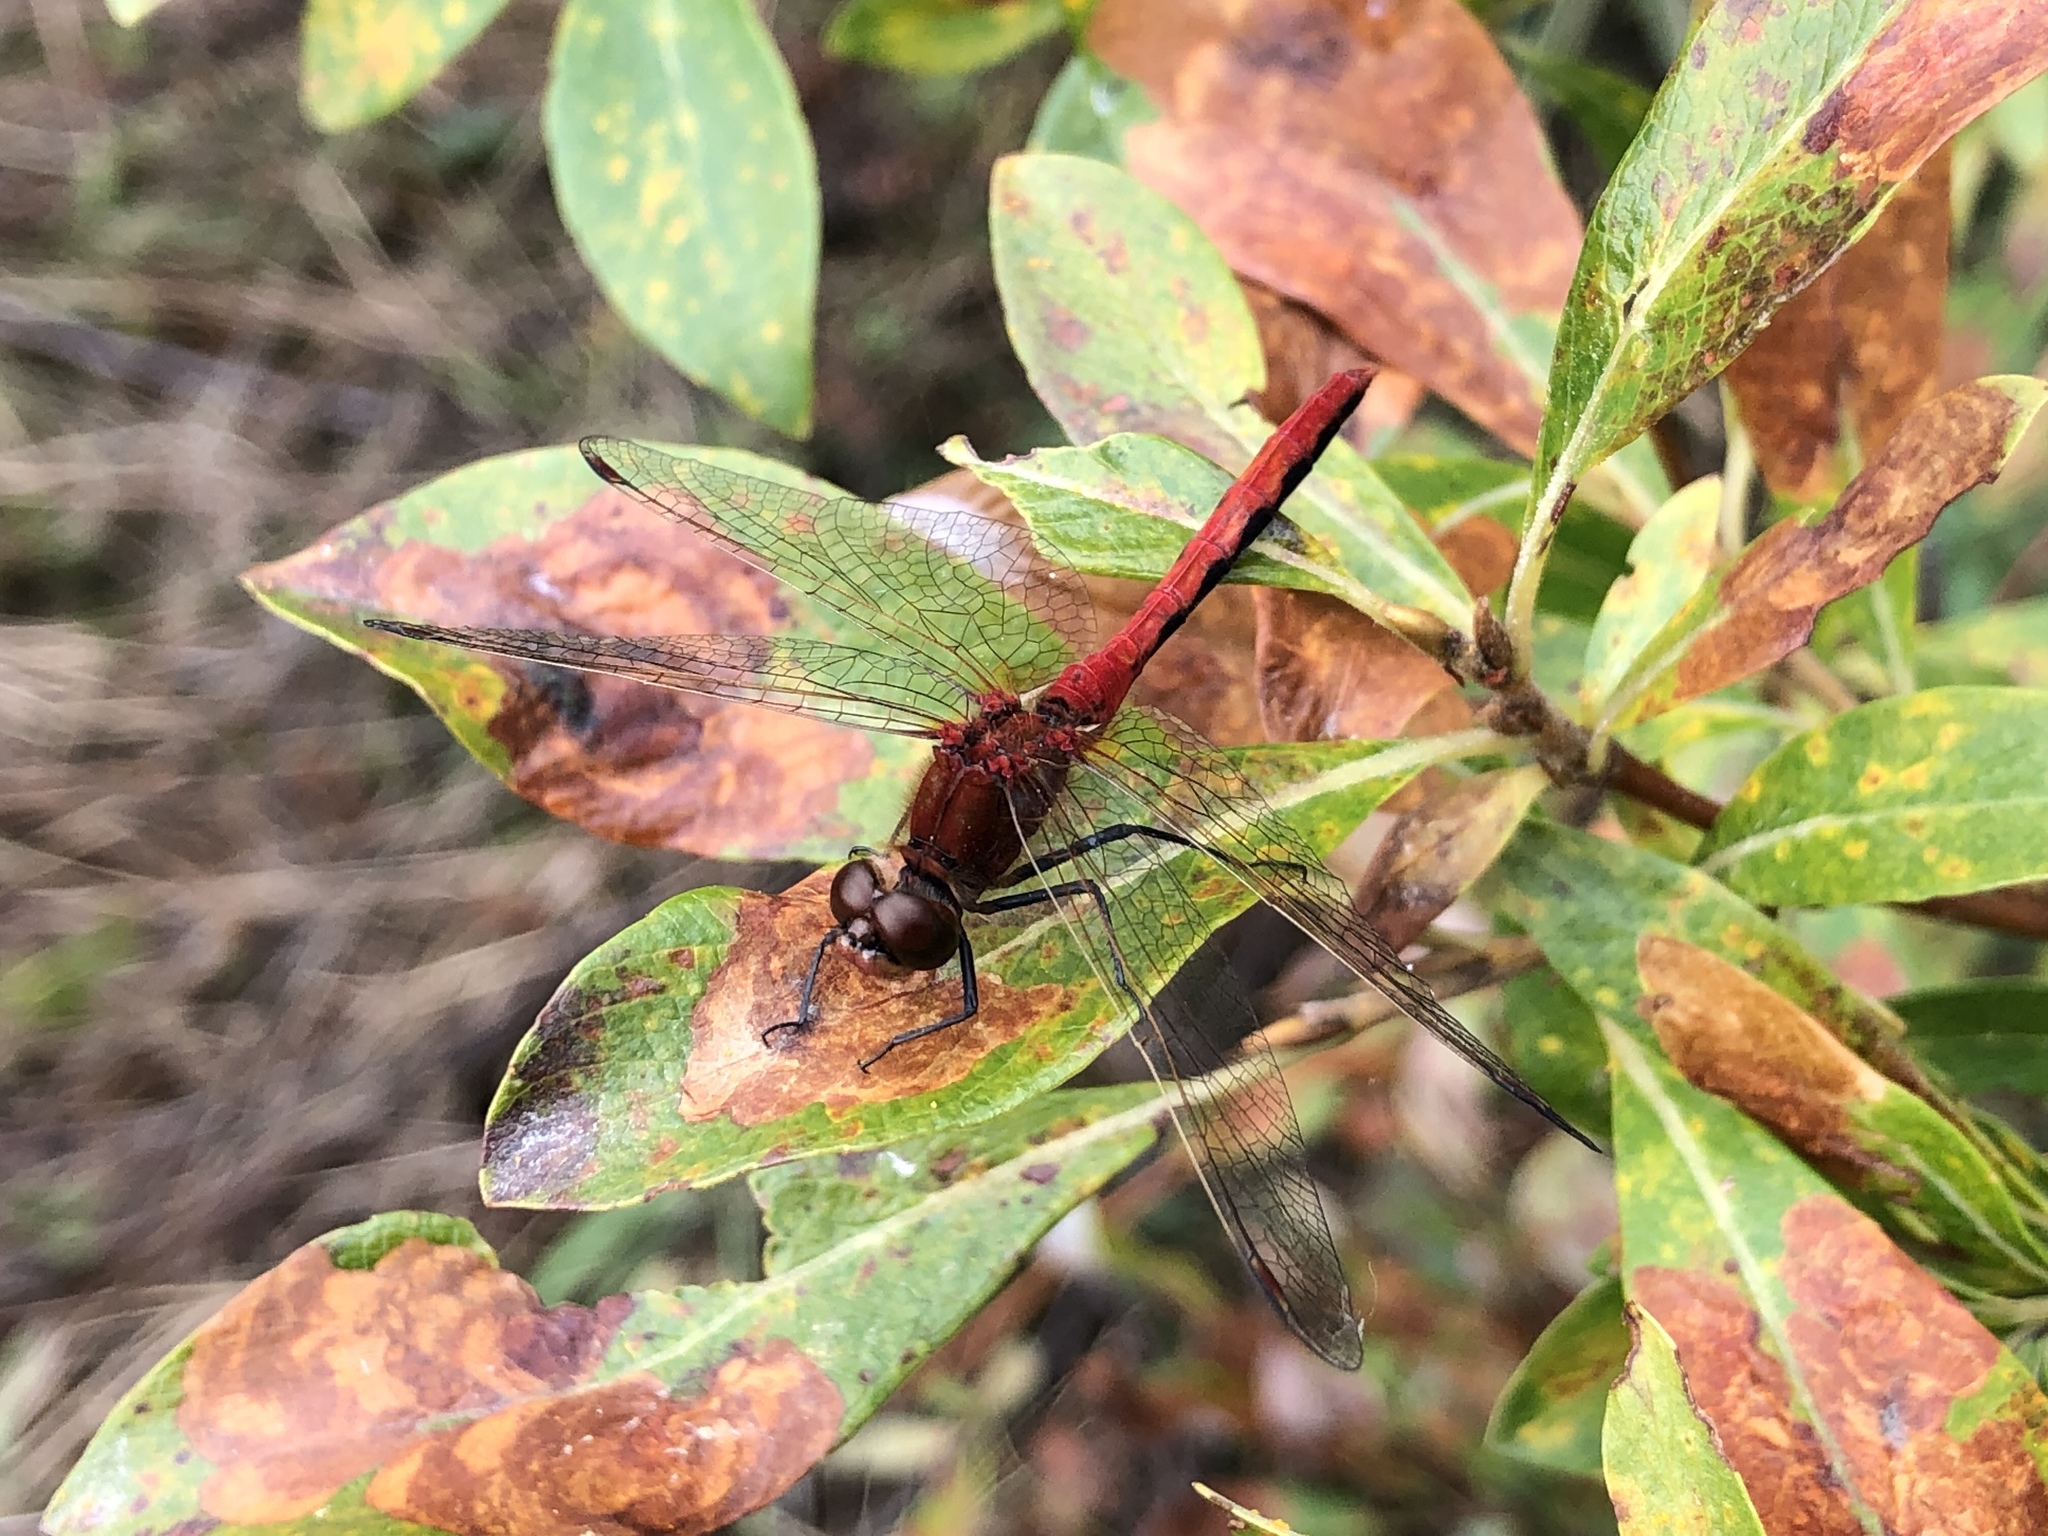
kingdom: Animalia
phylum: Arthropoda
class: Insecta
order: Odonata
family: Libellulidae
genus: Sympetrum
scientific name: Sympetrum internum
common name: Cherry-faced meadowhawk
